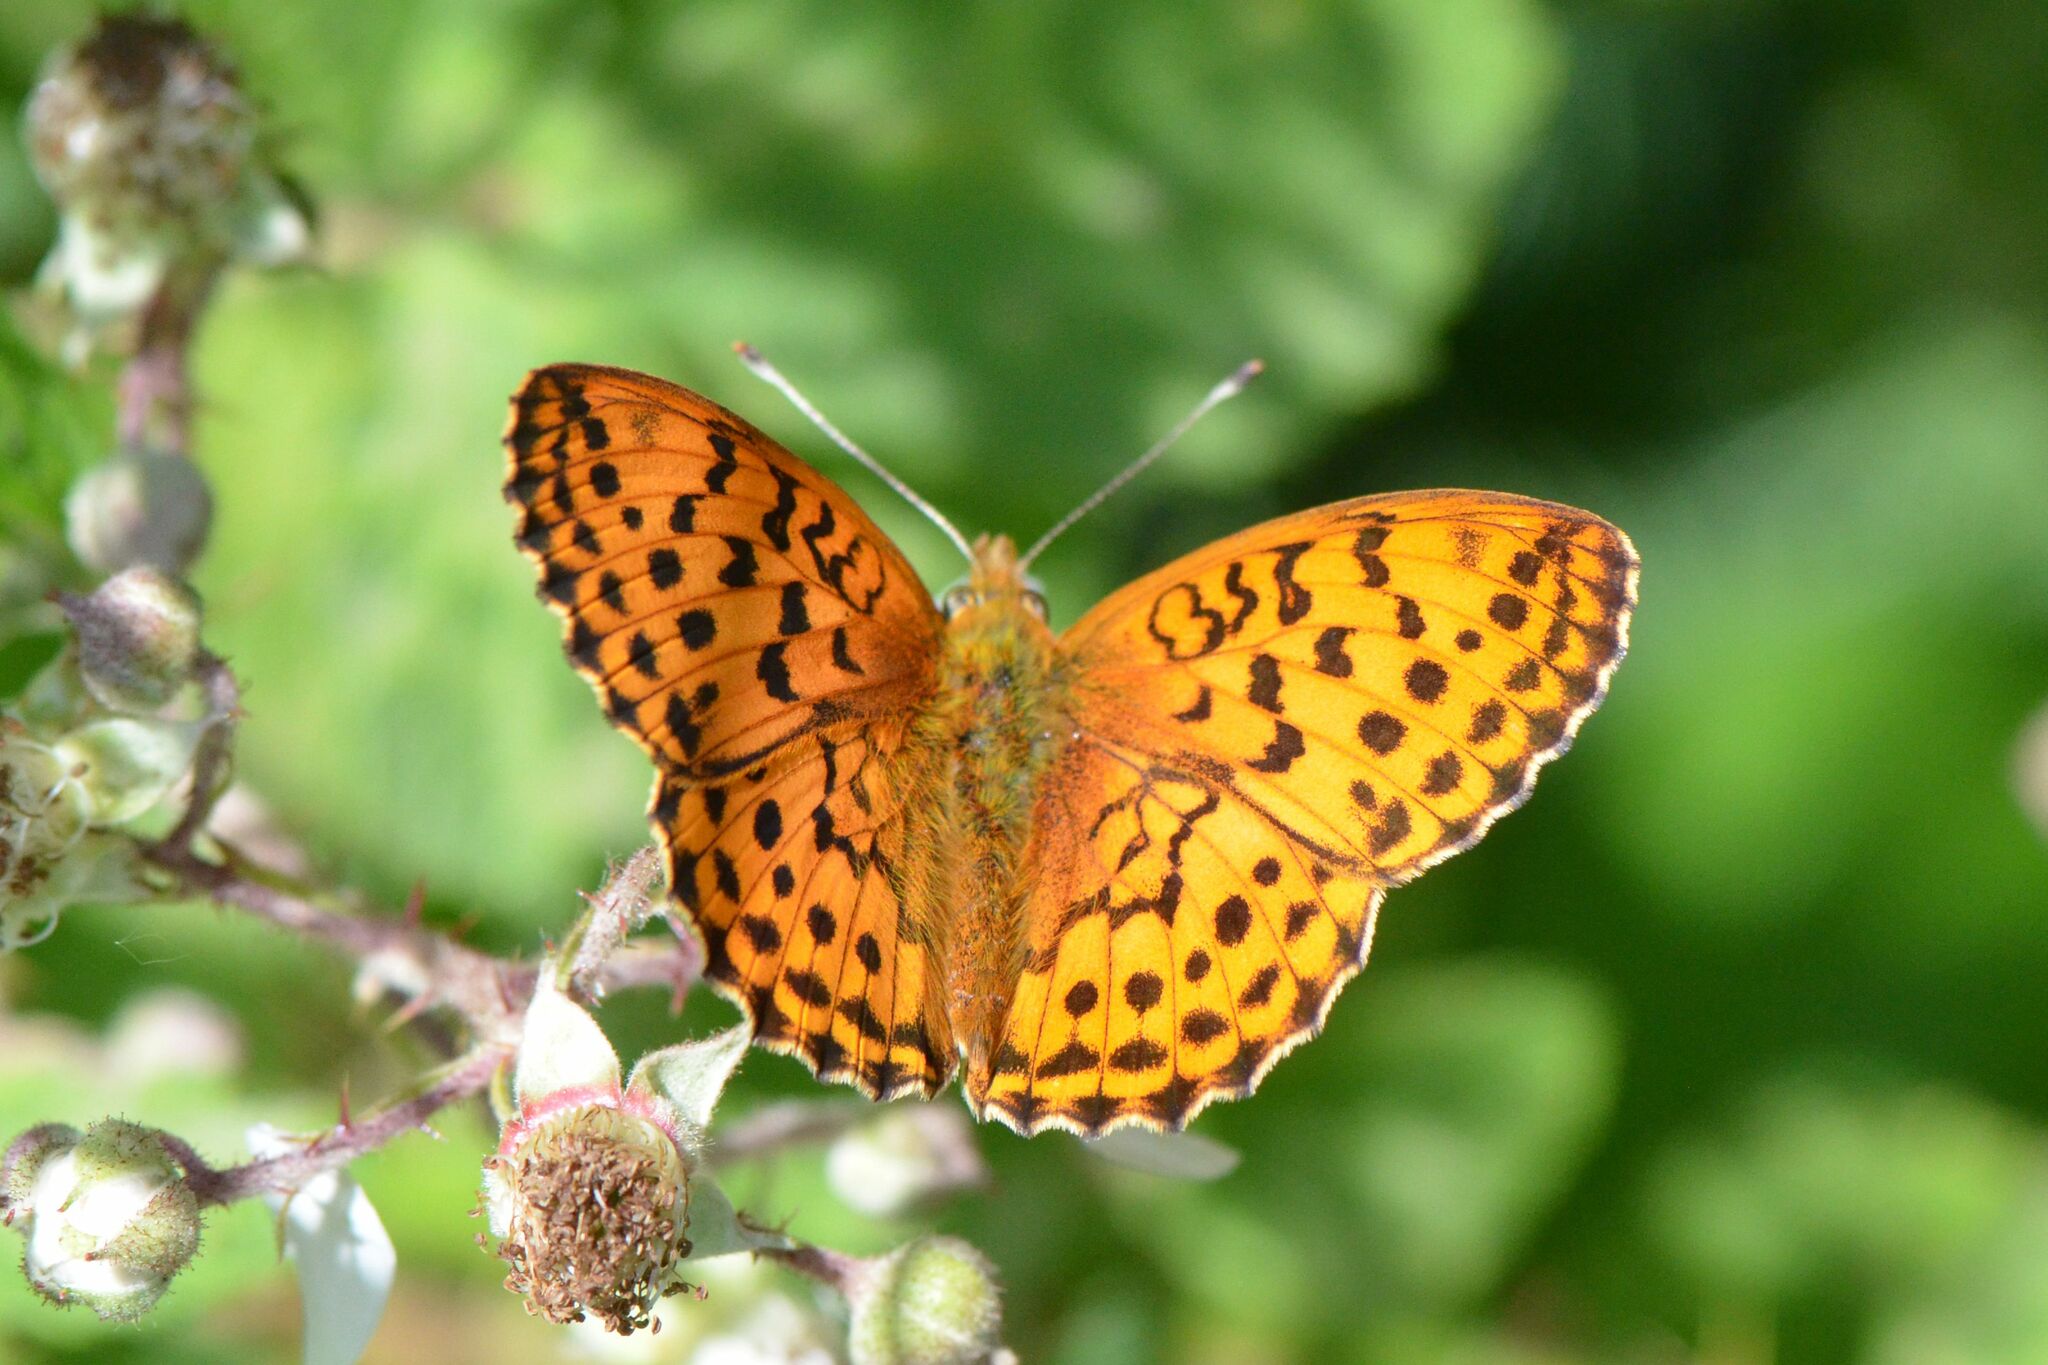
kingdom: Animalia
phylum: Arthropoda
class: Insecta
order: Lepidoptera
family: Nymphalidae
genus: Brenthis
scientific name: Brenthis daphne
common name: Marbled fritillary
